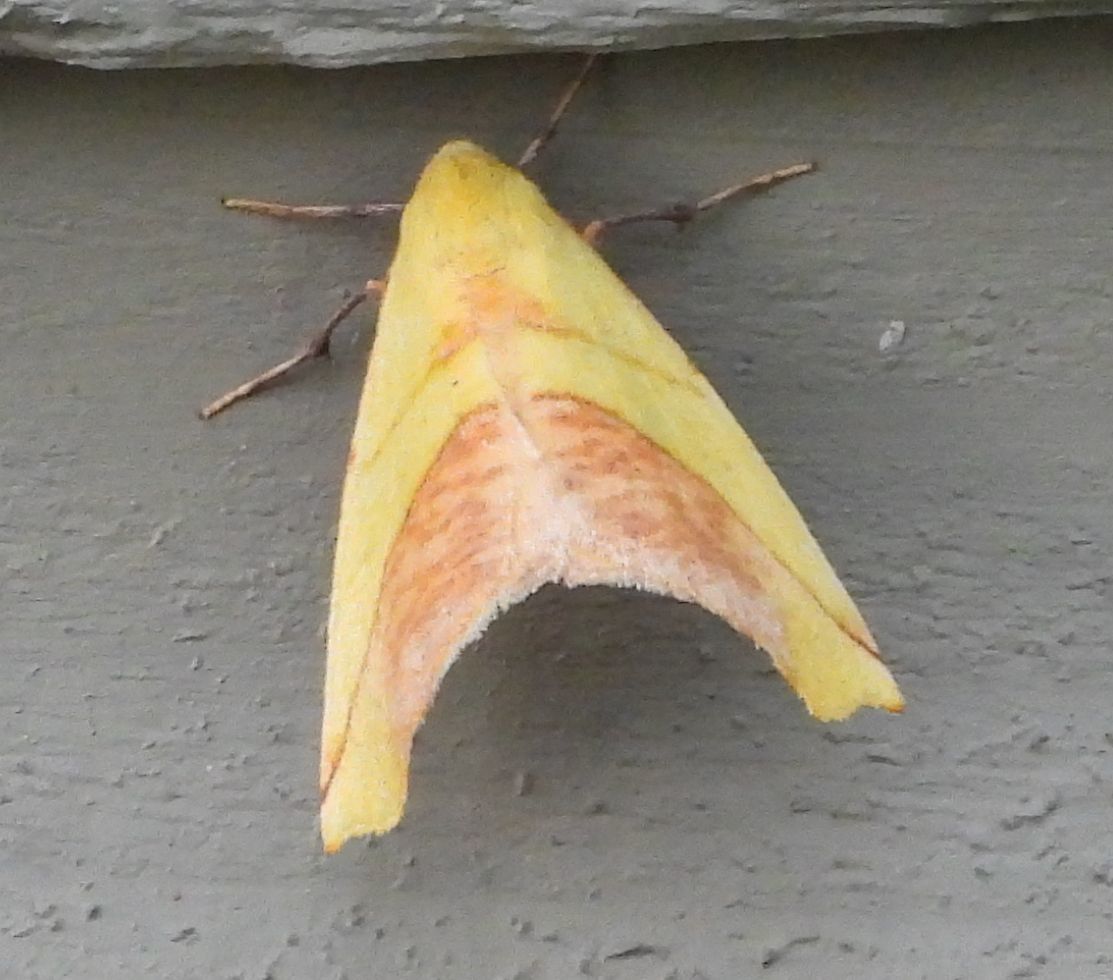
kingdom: Animalia
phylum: Arthropoda
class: Insecta
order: Lepidoptera
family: Geometridae
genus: Sicya
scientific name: Sicya macularia
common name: Sharp-lined yellow
